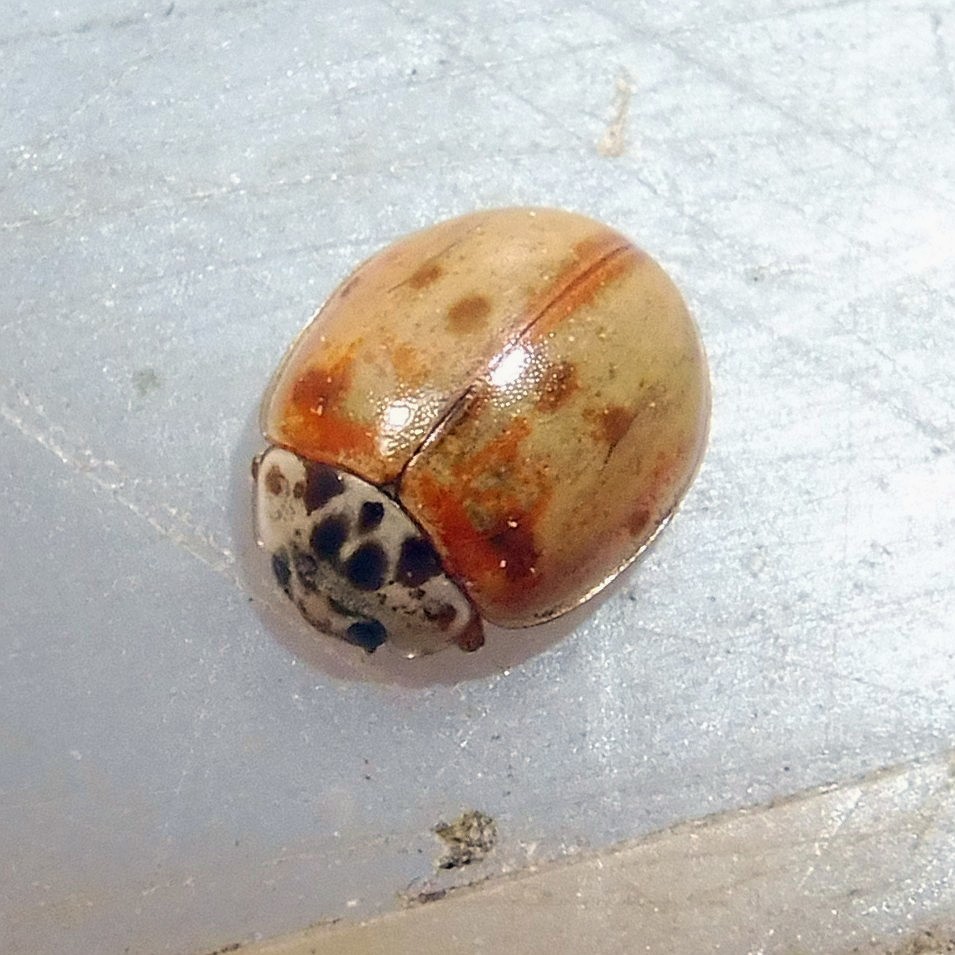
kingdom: Animalia
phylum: Arthropoda
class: Insecta
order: Coleoptera
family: Coccinellidae
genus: Adalia
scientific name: Adalia decempunctata
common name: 10-spot ladybird
